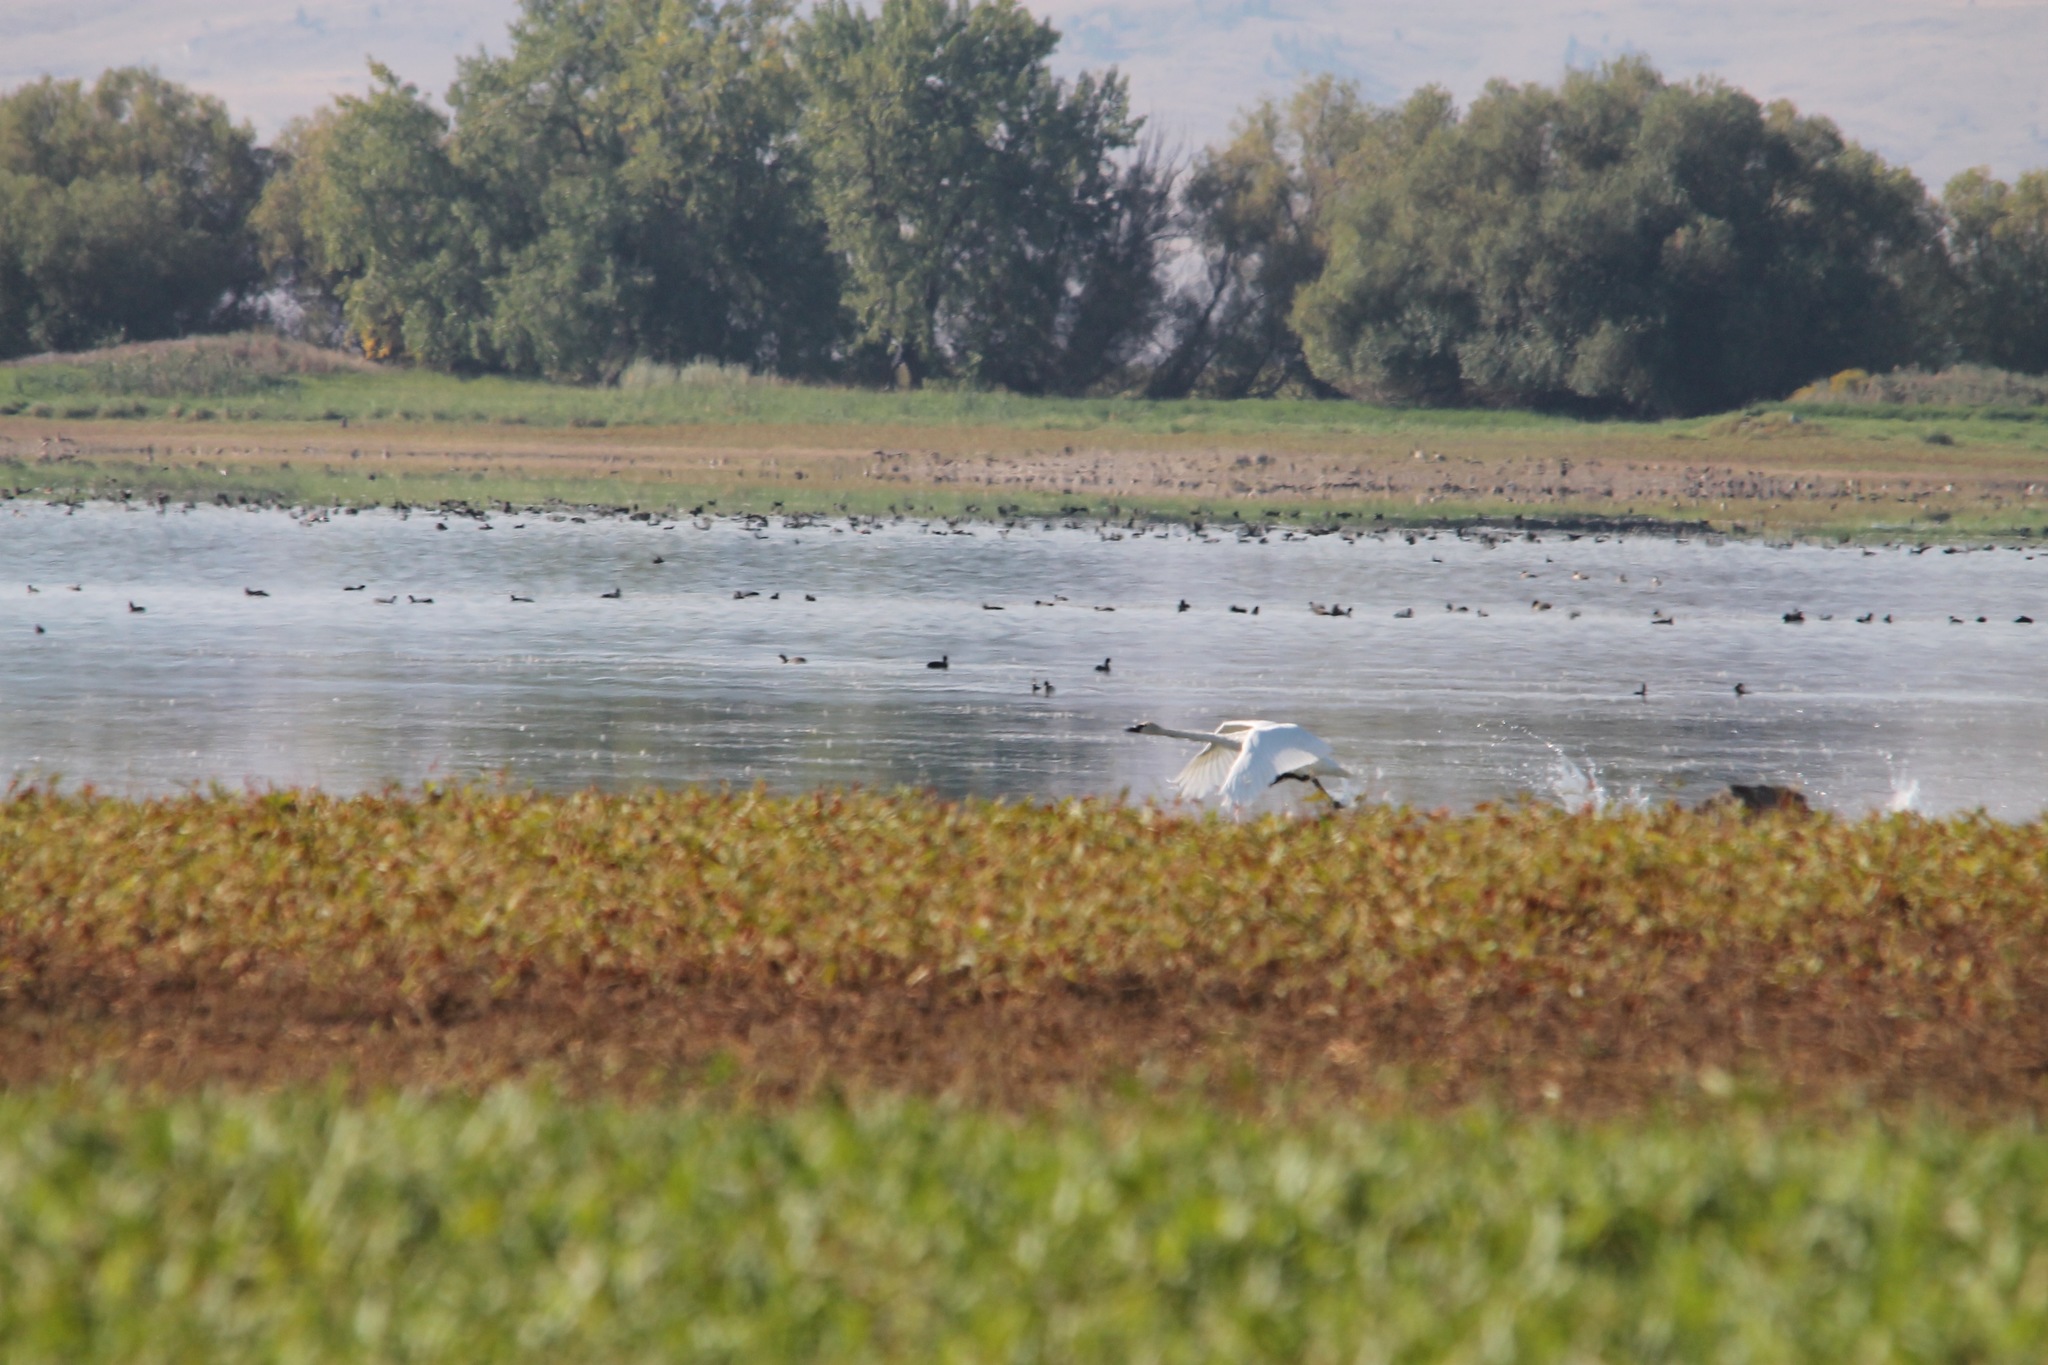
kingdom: Animalia
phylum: Chordata
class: Aves
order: Anseriformes
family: Anatidae
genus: Cygnus
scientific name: Cygnus buccinator
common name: Trumpeter swan
